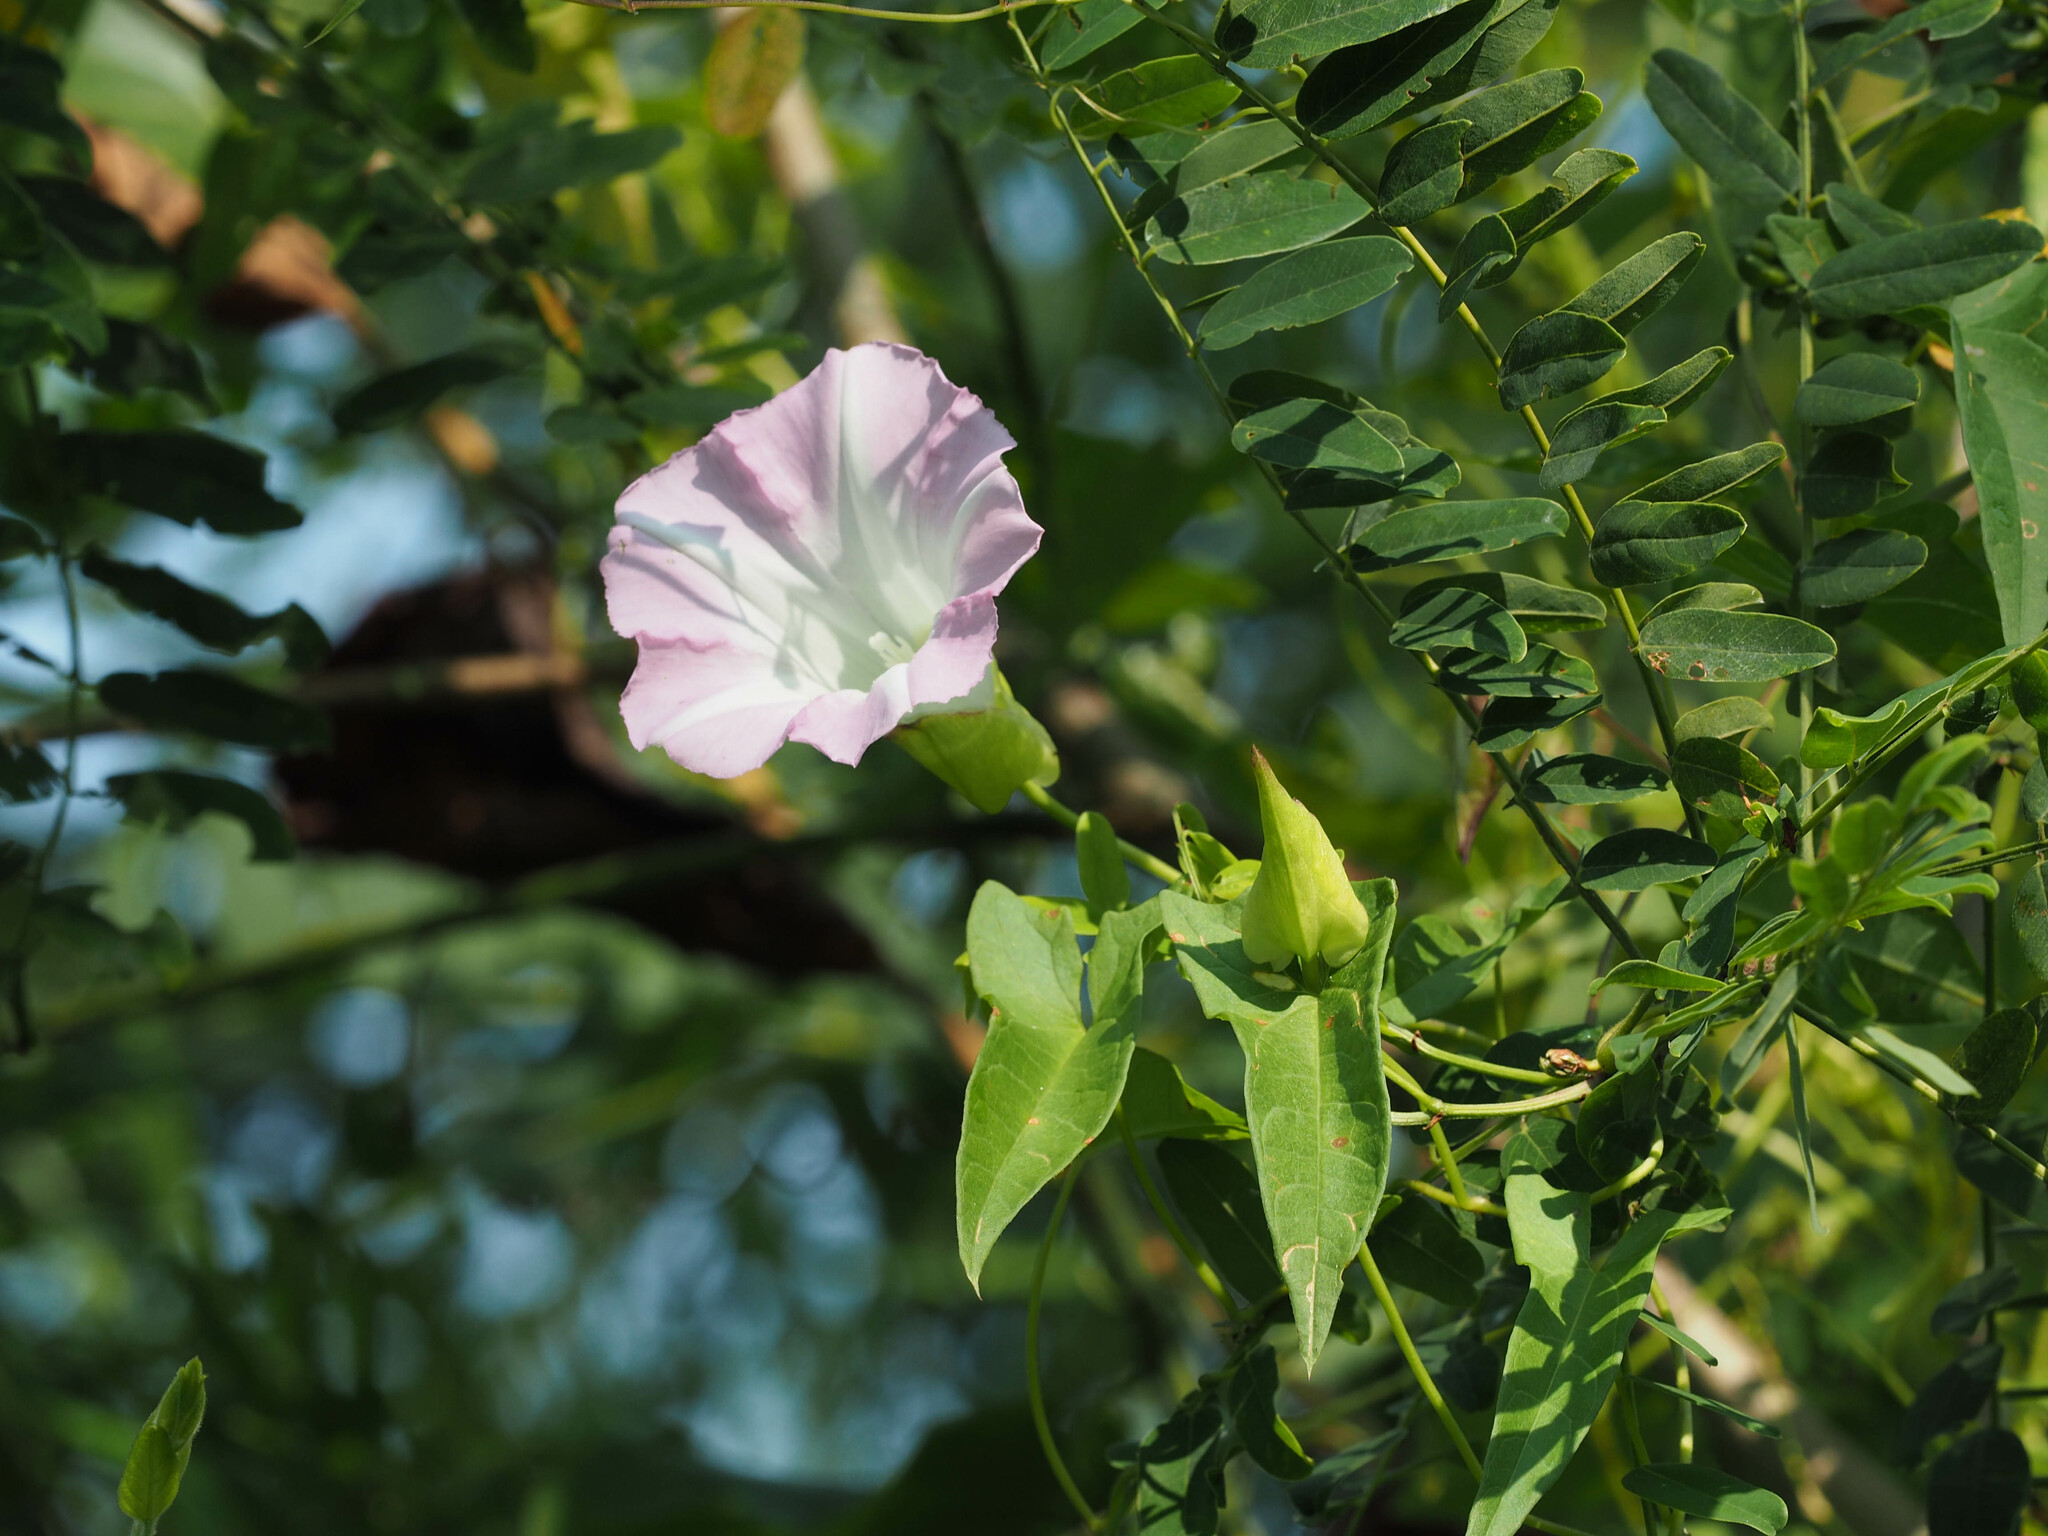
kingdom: Plantae
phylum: Tracheophyta
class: Magnoliopsida
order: Solanales
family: Convolvulaceae
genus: Calystegia
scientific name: Calystegia sepium
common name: Hedge bindweed
